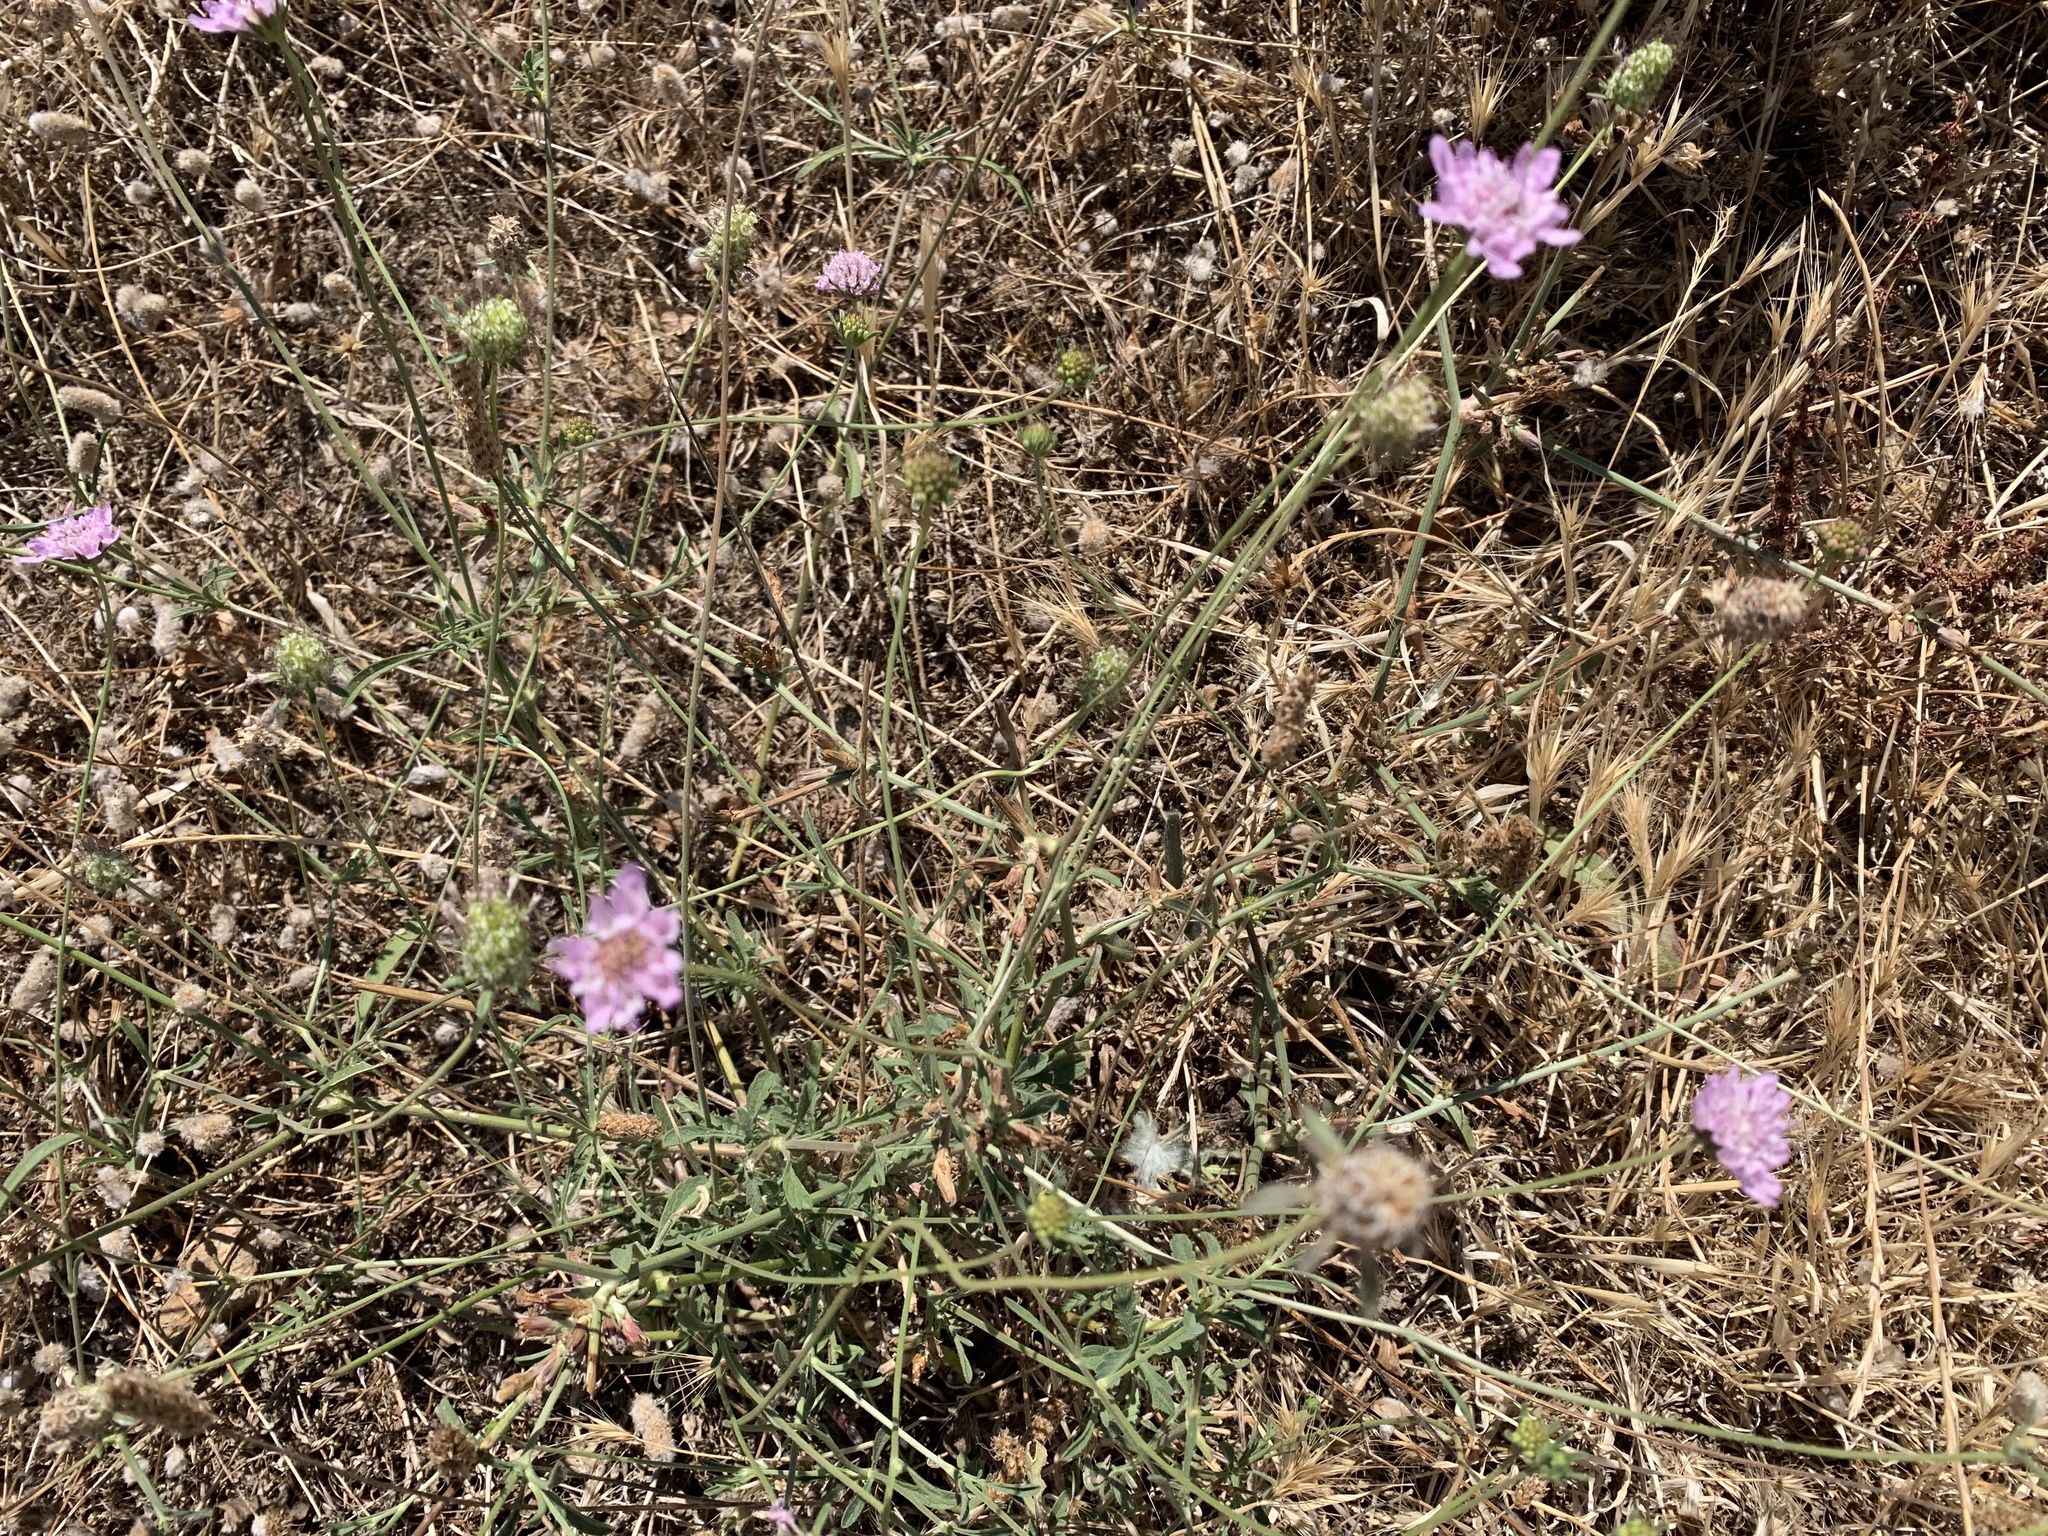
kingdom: Plantae
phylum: Tracheophyta
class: Magnoliopsida
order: Dipsacales
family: Caprifoliaceae
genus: Sixalix
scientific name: Sixalix atropurpurea
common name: Sweet scabious
